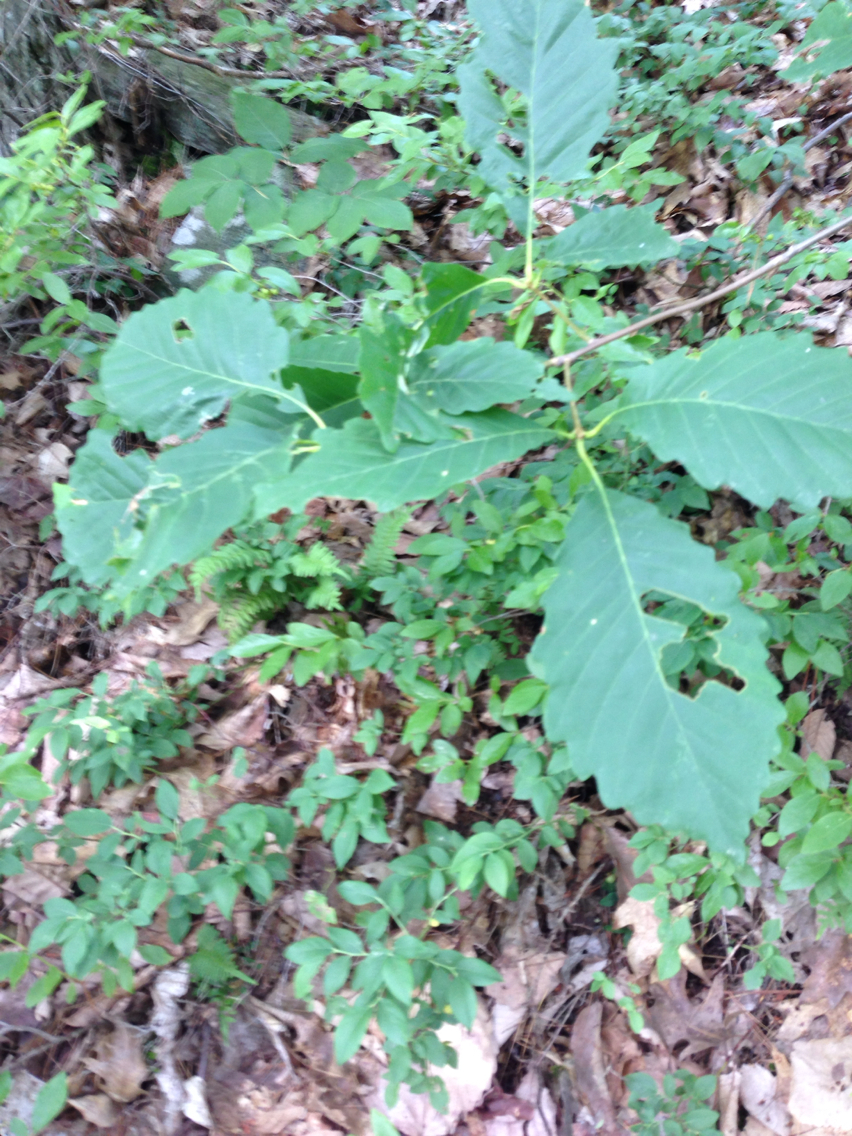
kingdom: Plantae
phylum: Tracheophyta
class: Magnoliopsida
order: Fagales
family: Fagaceae
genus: Quercus
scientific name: Quercus montana
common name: Chestnut oak
